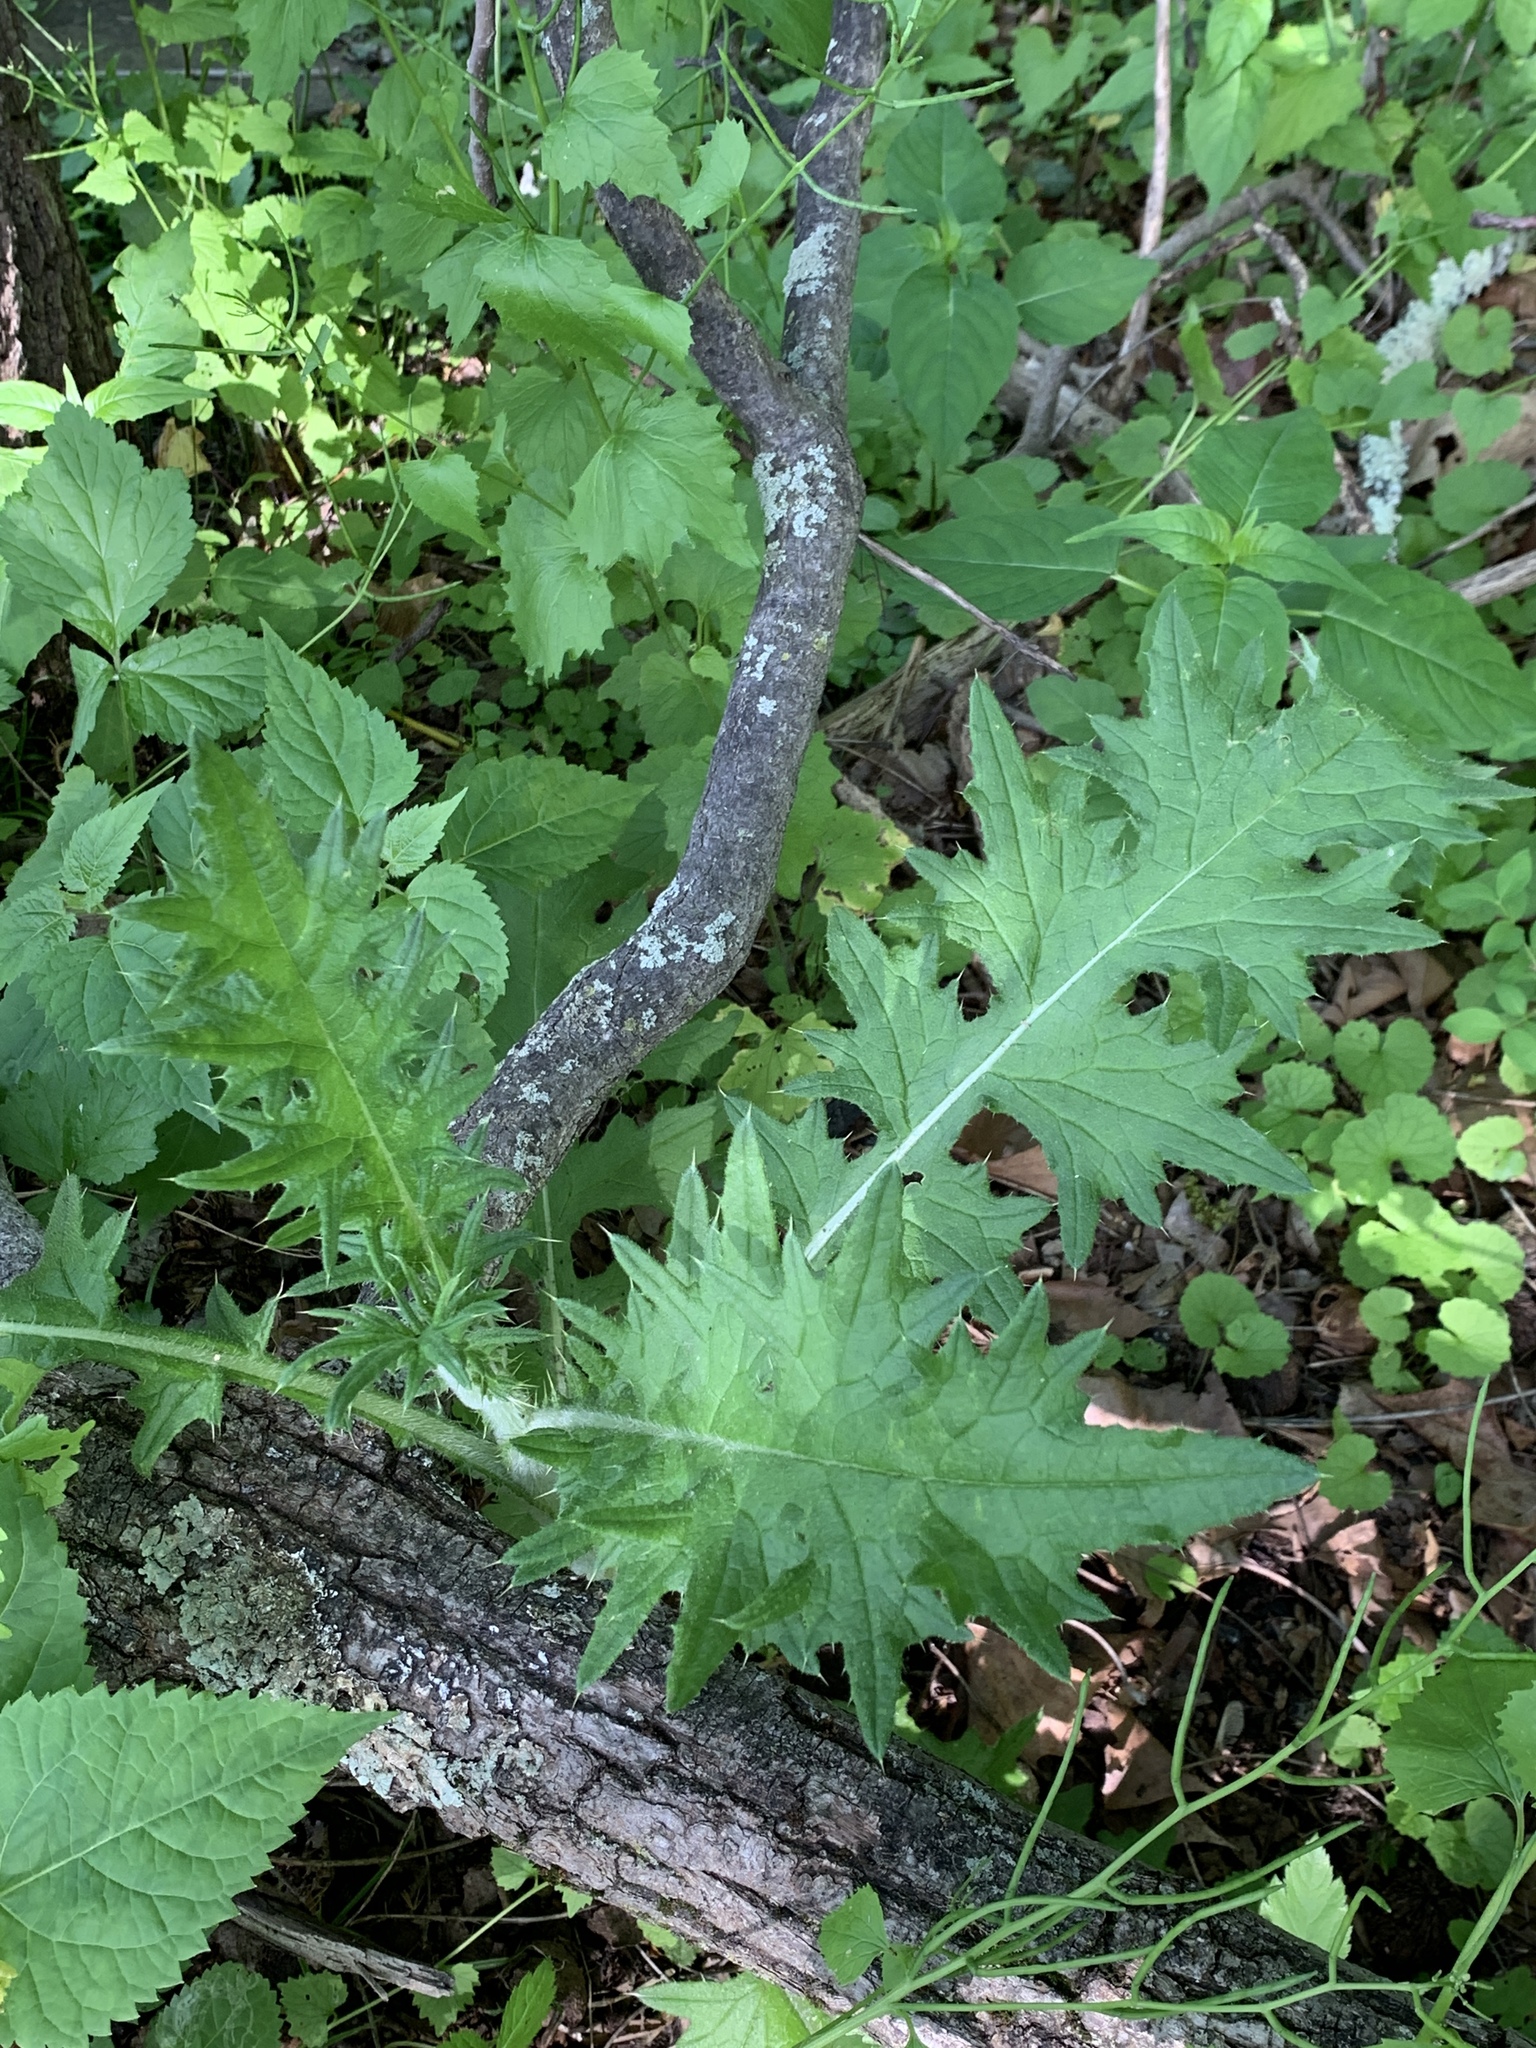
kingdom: Plantae
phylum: Tracheophyta
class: Magnoliopsida
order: Asterales
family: Asteraceae
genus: Cirsium
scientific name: Cirsium vulgare
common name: Bull thistle
